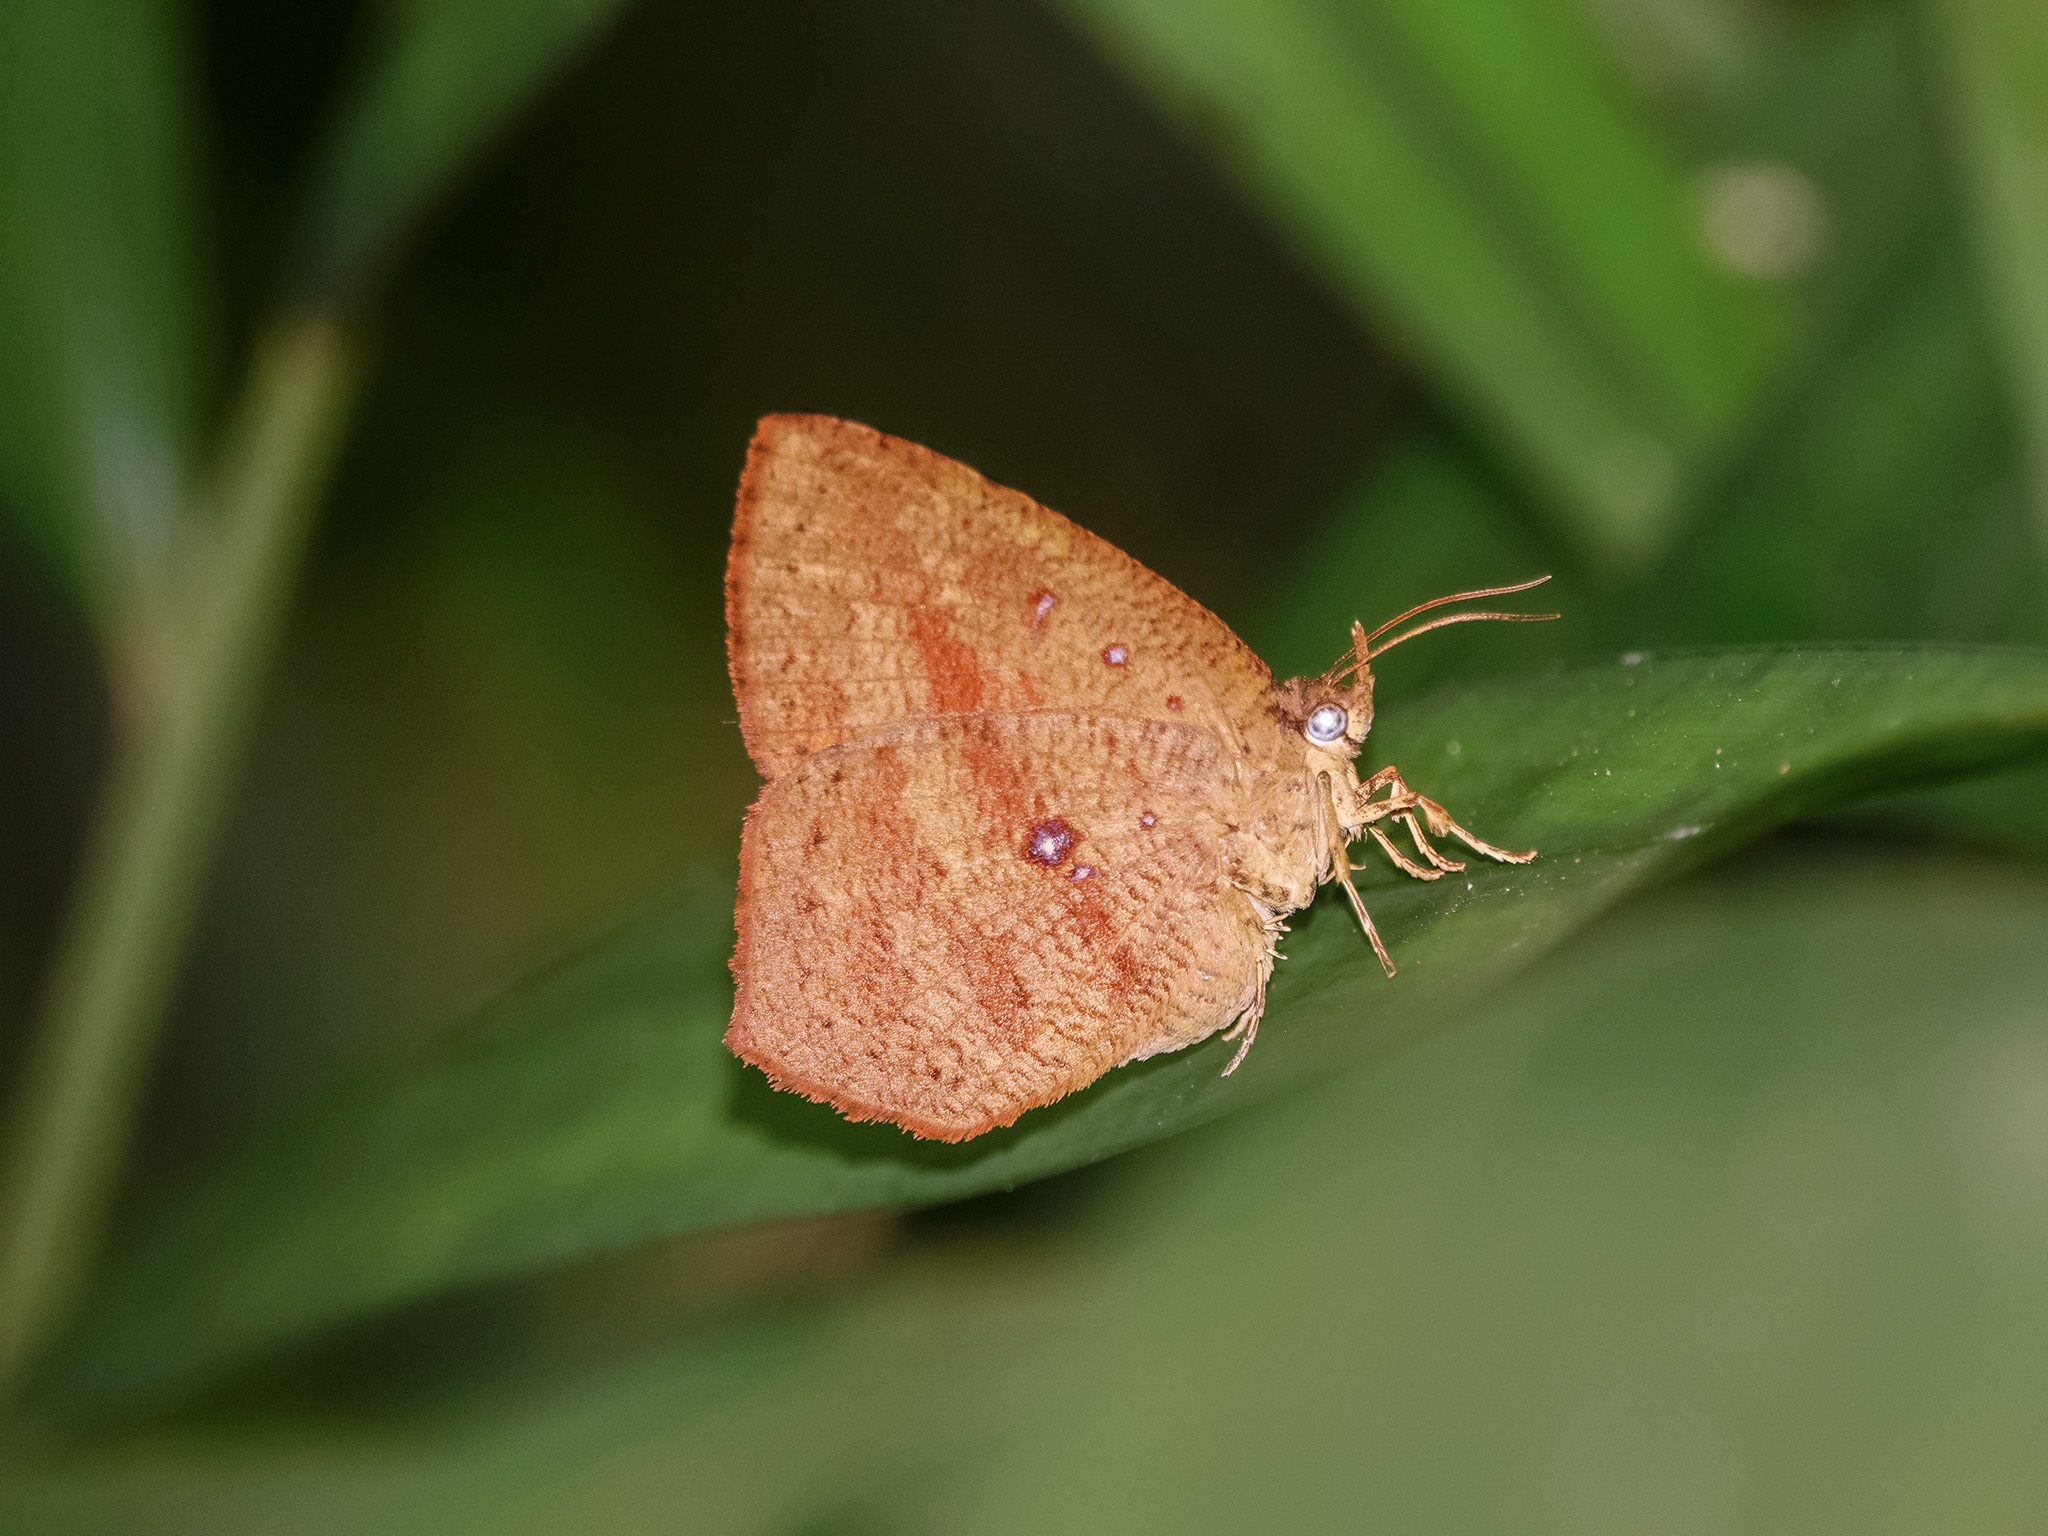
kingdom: Animalia
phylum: Arthropoda
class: Insecta
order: Lepidoptera
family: Callidulidae
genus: Tetragonus
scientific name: Tetragonus catamitus
